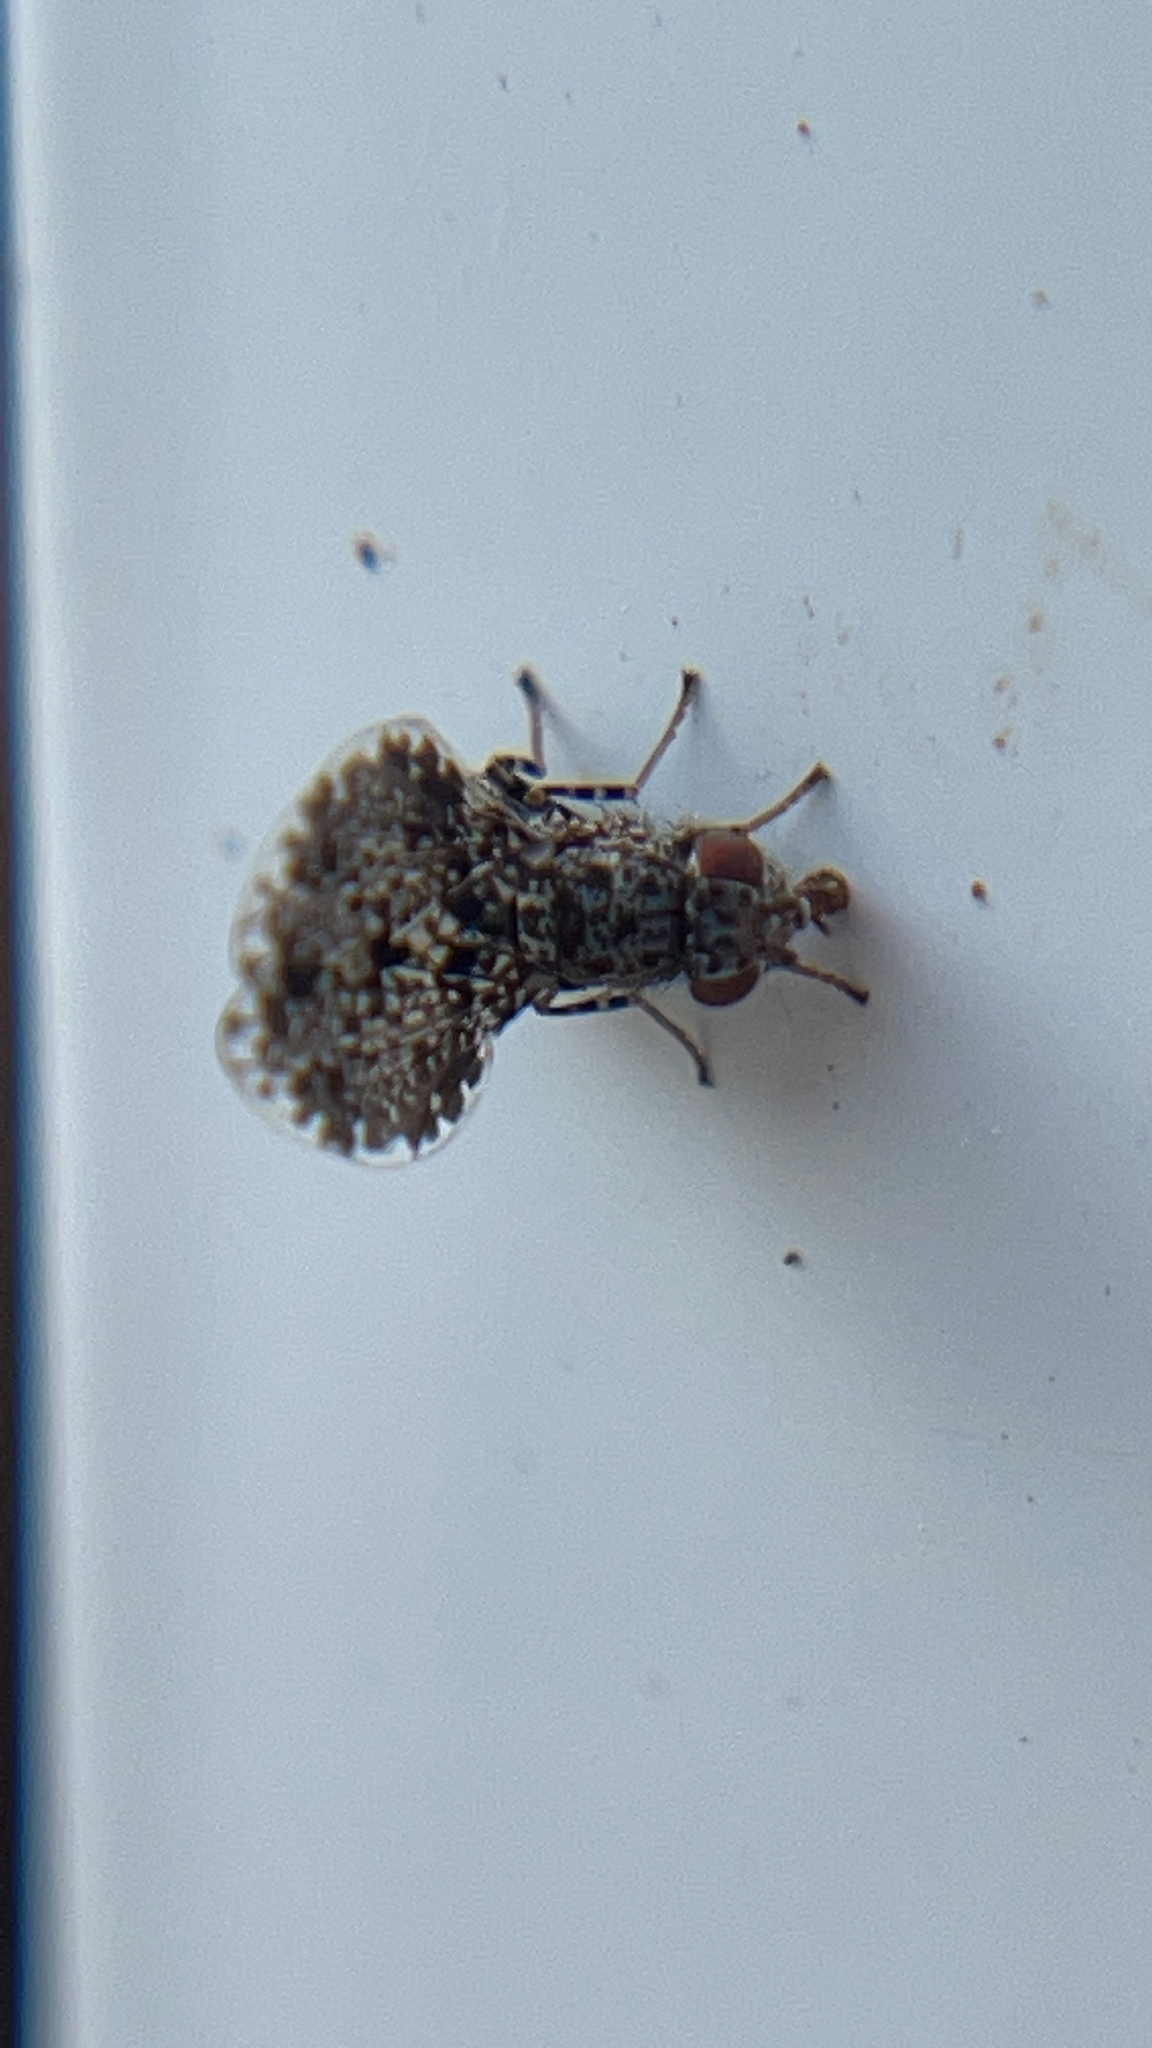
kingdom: Animalia
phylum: Arthropoda
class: Insecta
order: Diptera
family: Ulidiidae
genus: Callopistromyia
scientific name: Callopistromyia annulipes
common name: Peacock fly
